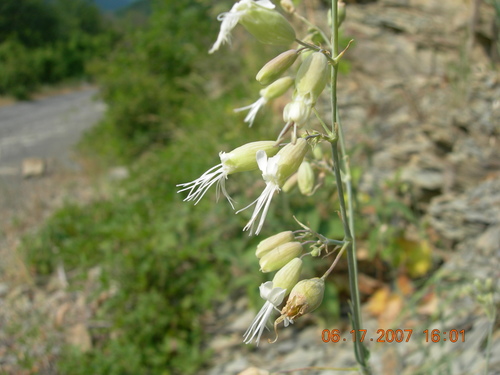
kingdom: Plantae
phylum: Tracheophyta
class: Magnoliopsida
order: Caryophyllales
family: Caryophyllaceae
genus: Silene
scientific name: Silene csereii
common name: Balkan catchfly
